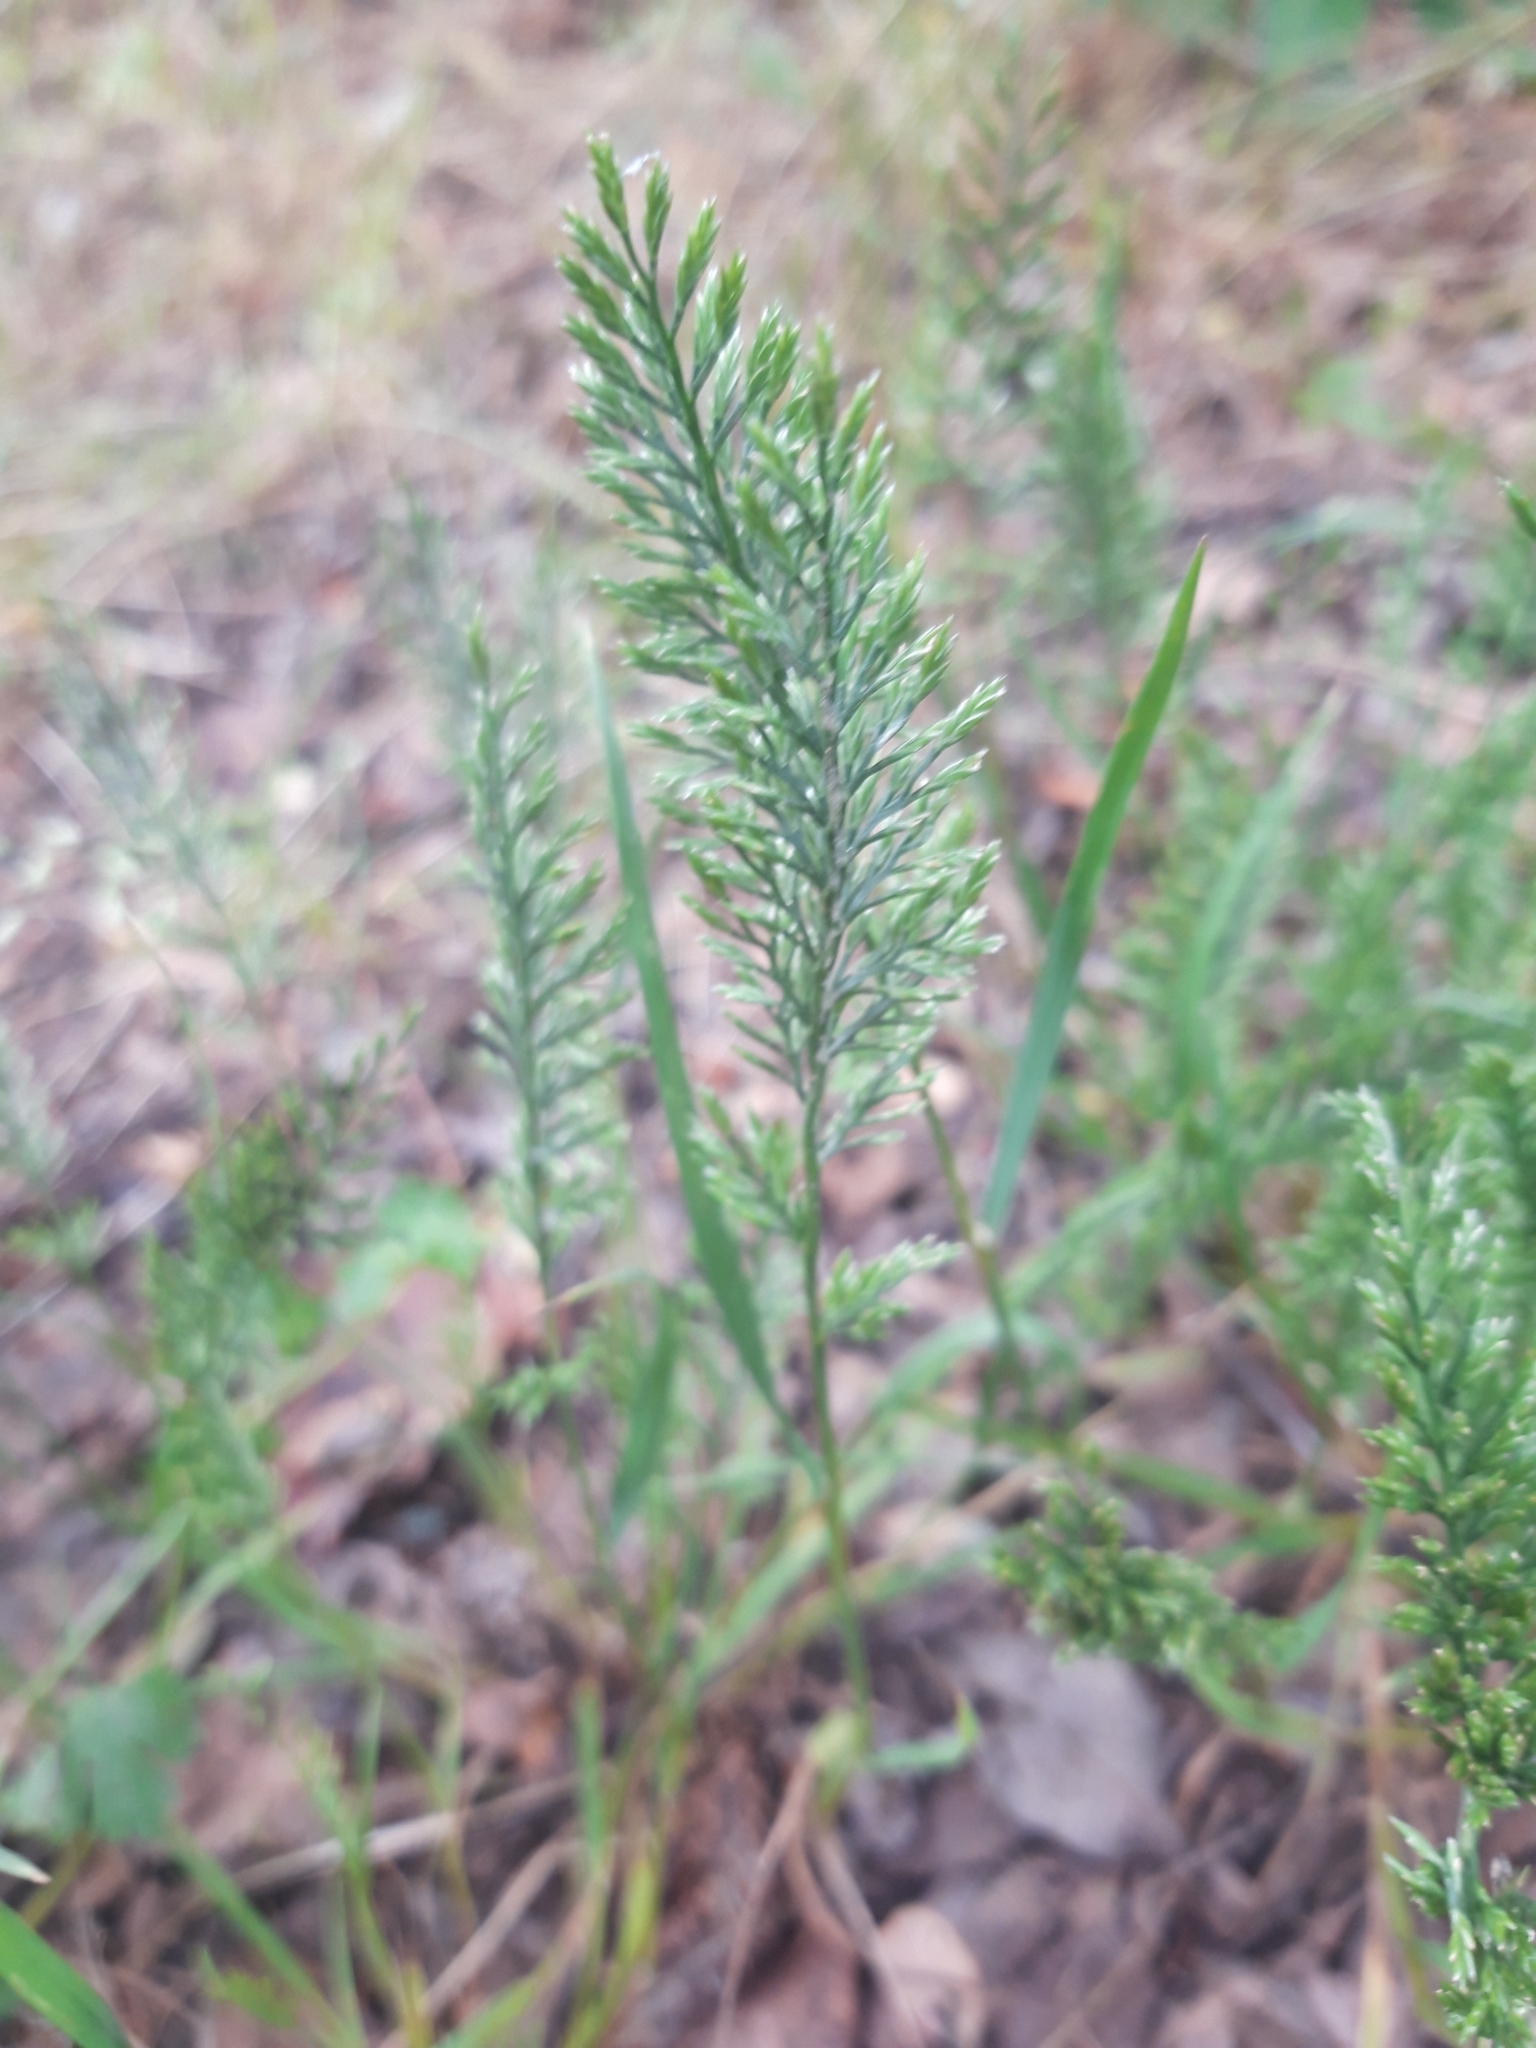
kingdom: Plantae
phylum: Tracheophyta
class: Liliopsida
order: Poales
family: Poaceae
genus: Catapodium
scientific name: Catapodium rigidum
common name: Fern-grass
